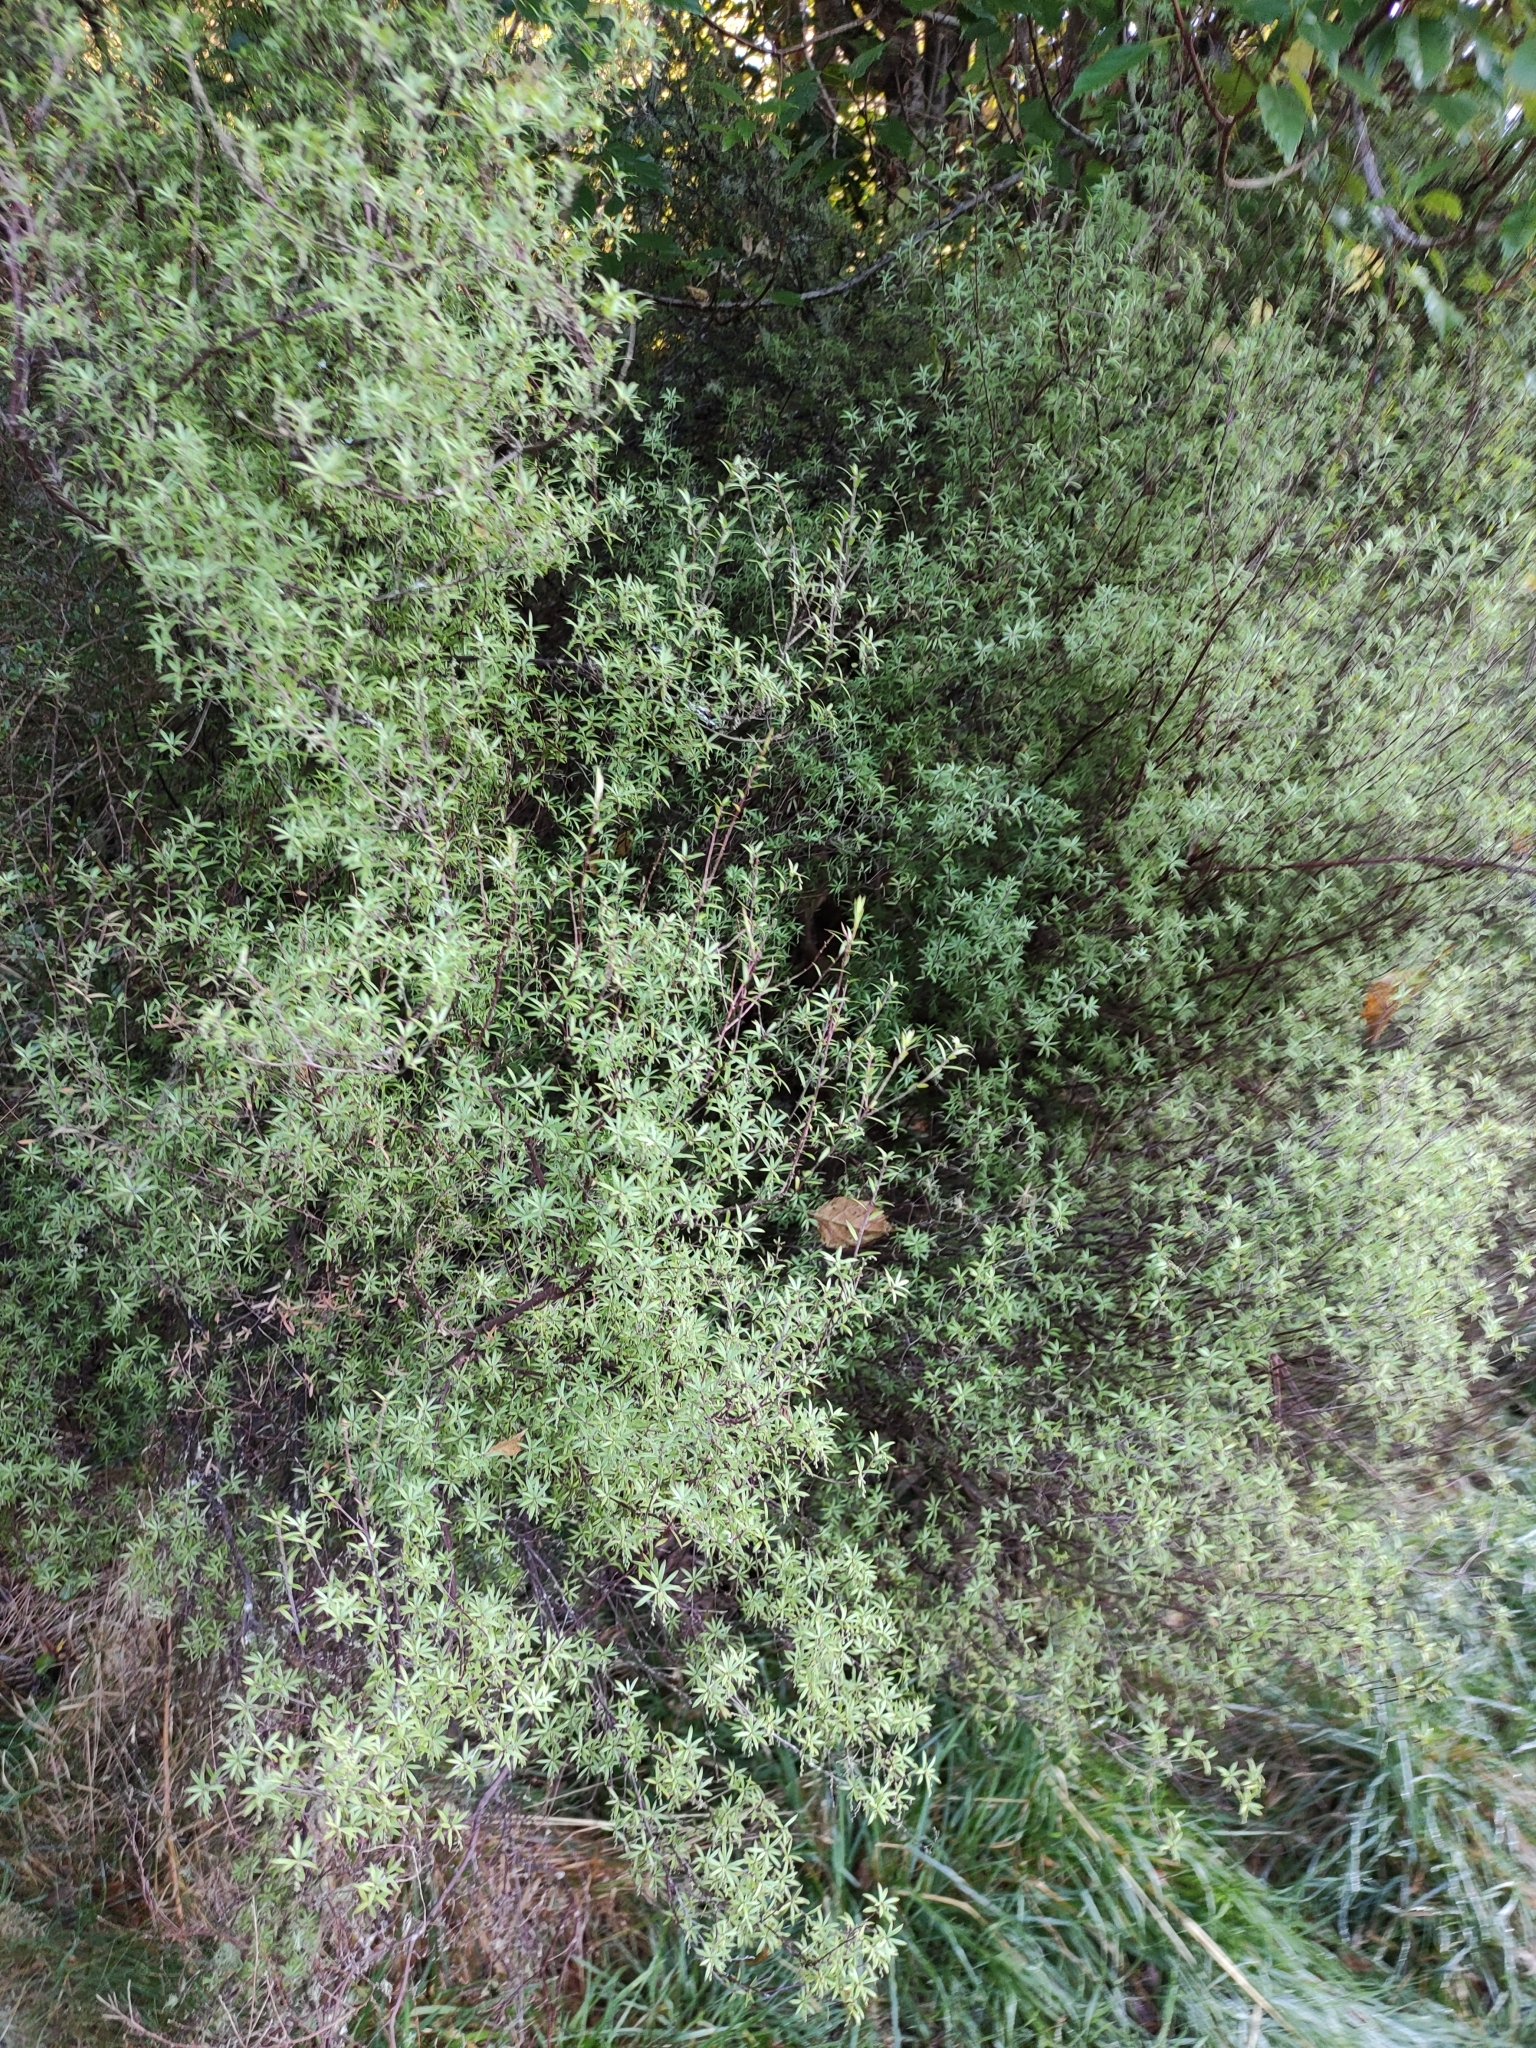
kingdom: Plantae
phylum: Tracheophyta
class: Magnoliopsida
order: Ericales
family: Ericaceae
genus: Leucopogon
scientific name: Leucopogon fasciculatus
